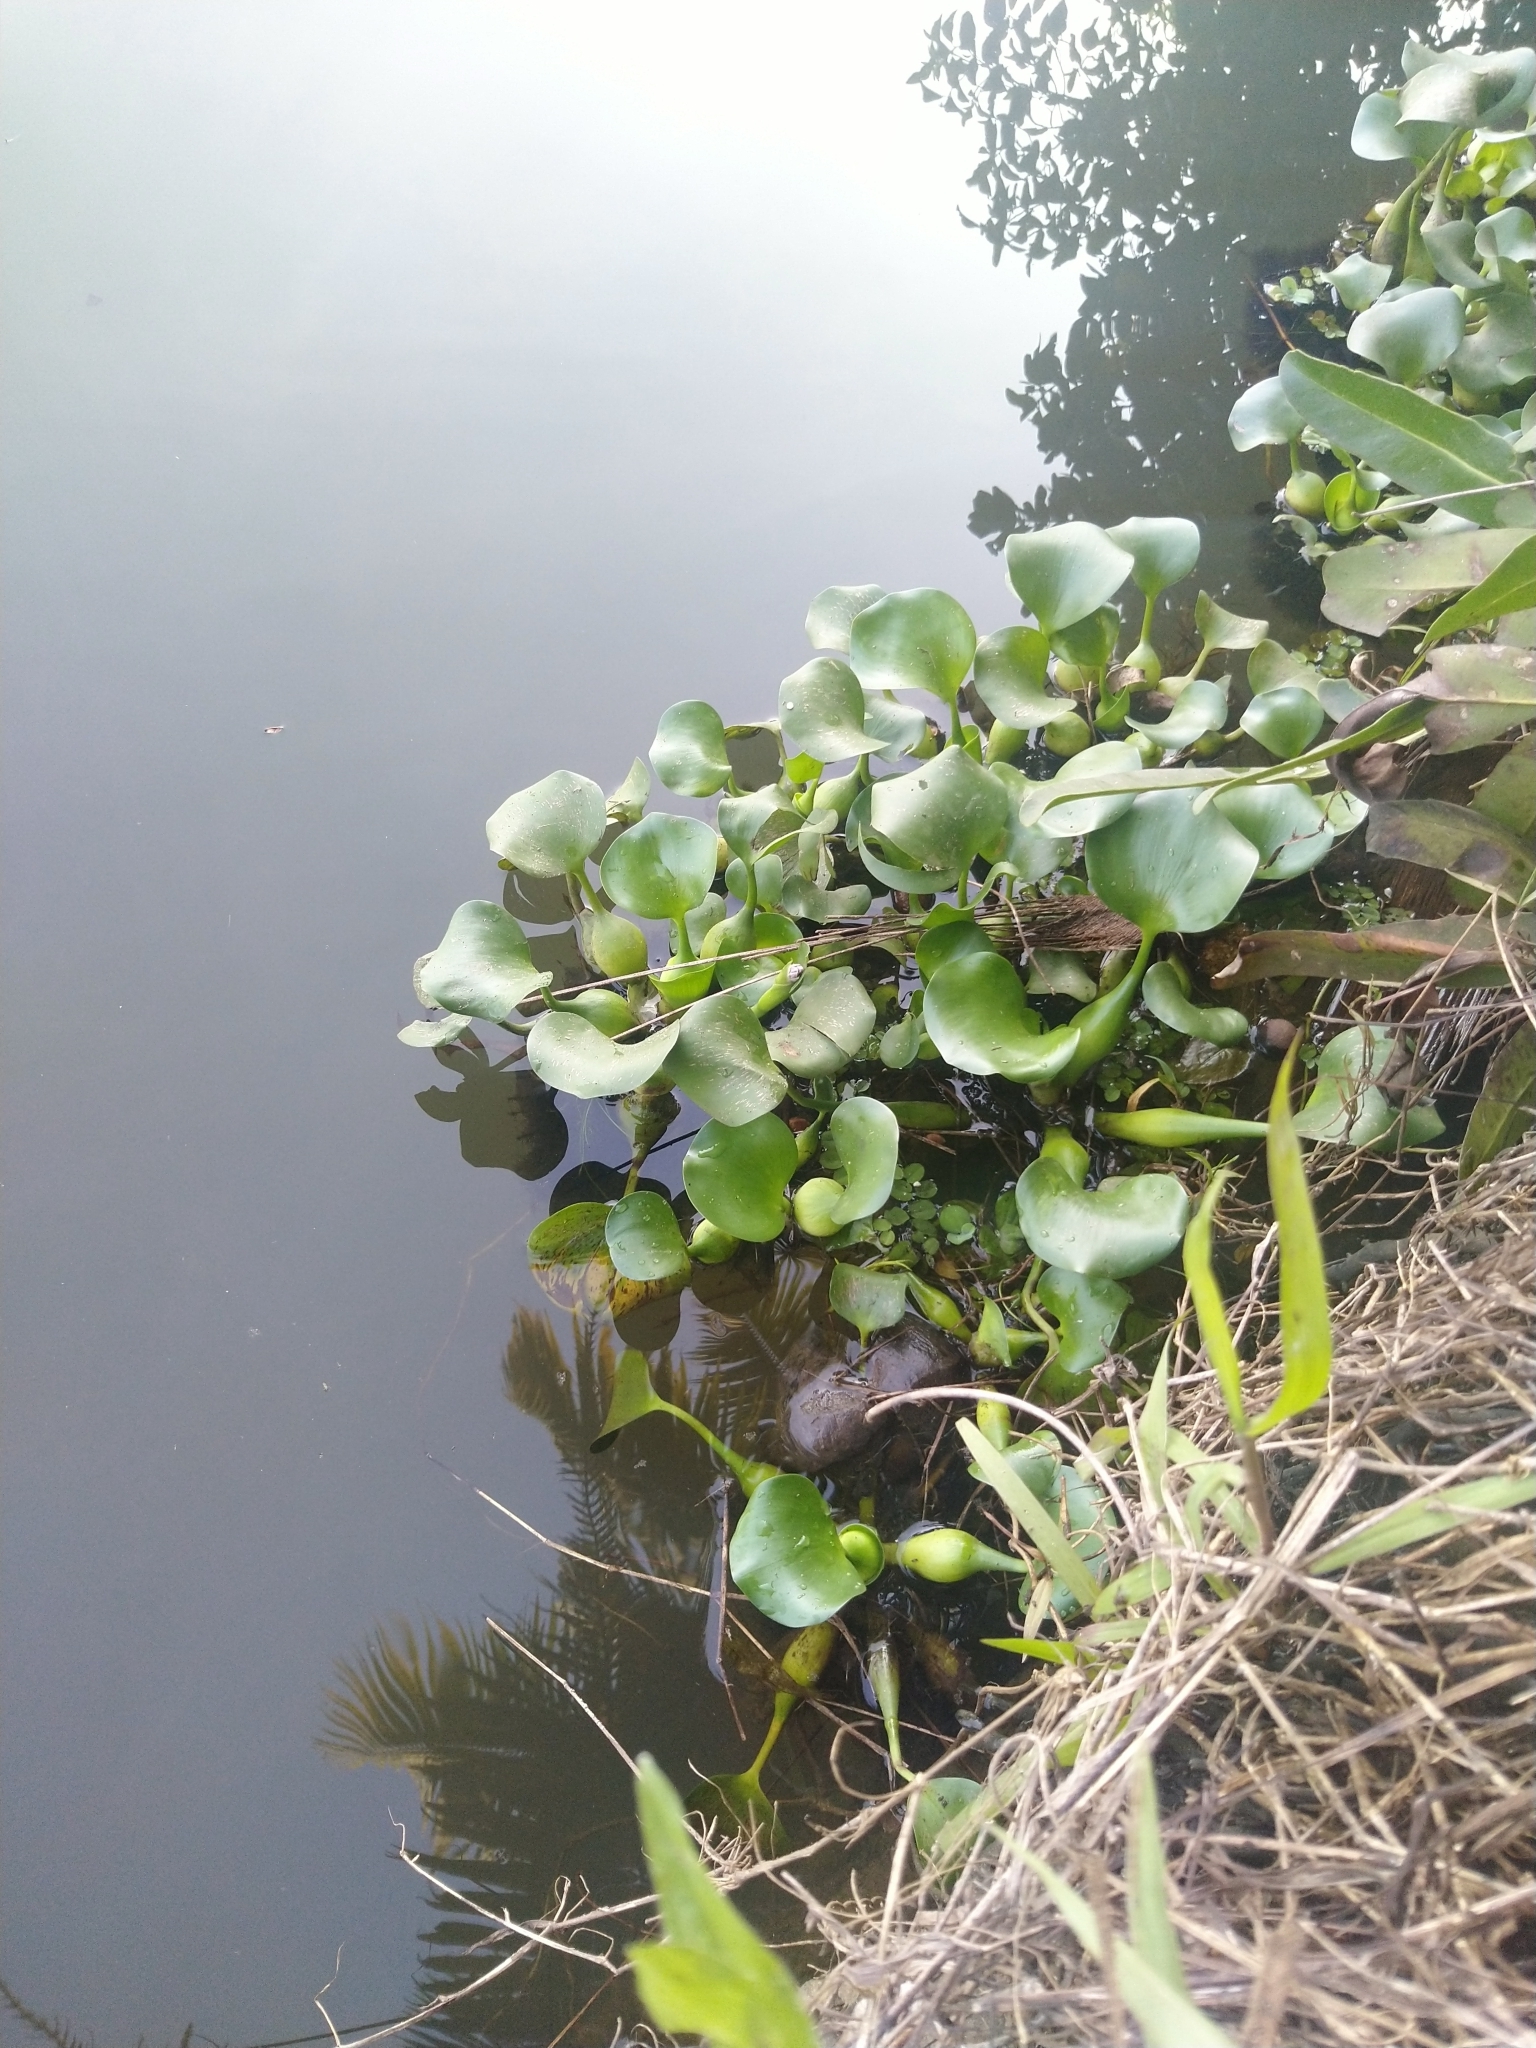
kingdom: Plantae
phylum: Tracheophyta
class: Liliopsida
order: Commelinales
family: Pontederiaceae
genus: Pontederia
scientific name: Pontederia crassipes
